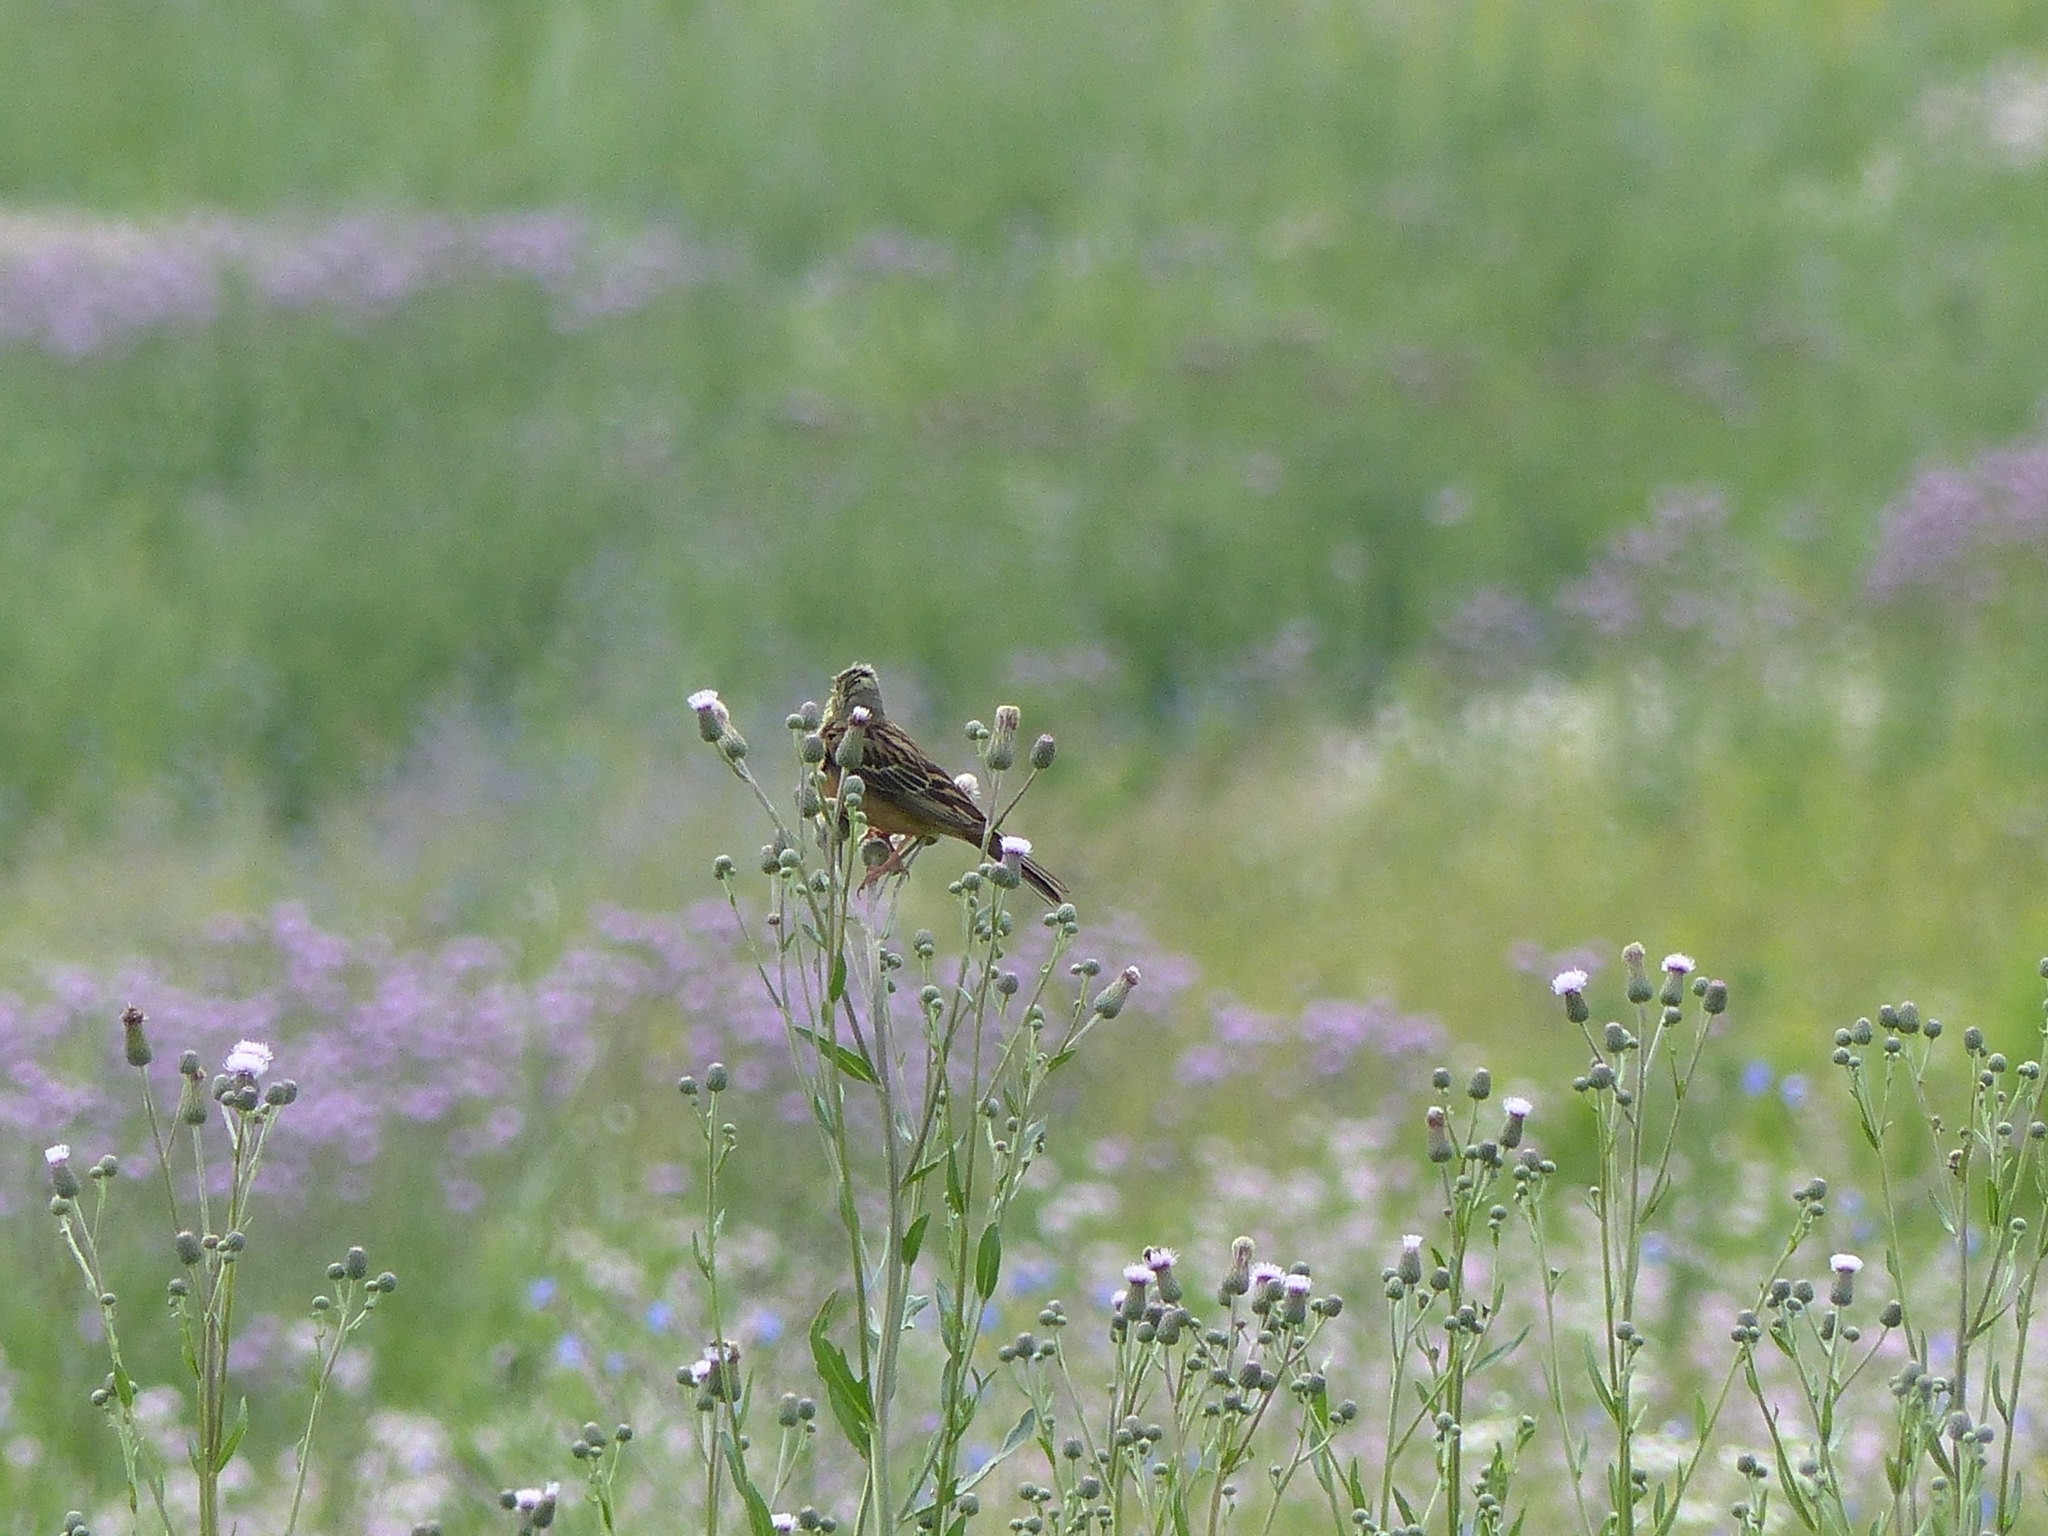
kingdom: Animalia
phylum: Chordata
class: Aves
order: Passeriformes
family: Emberizidae
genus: Emberiza
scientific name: Emberiza hortulana
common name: Ortolan bunting
